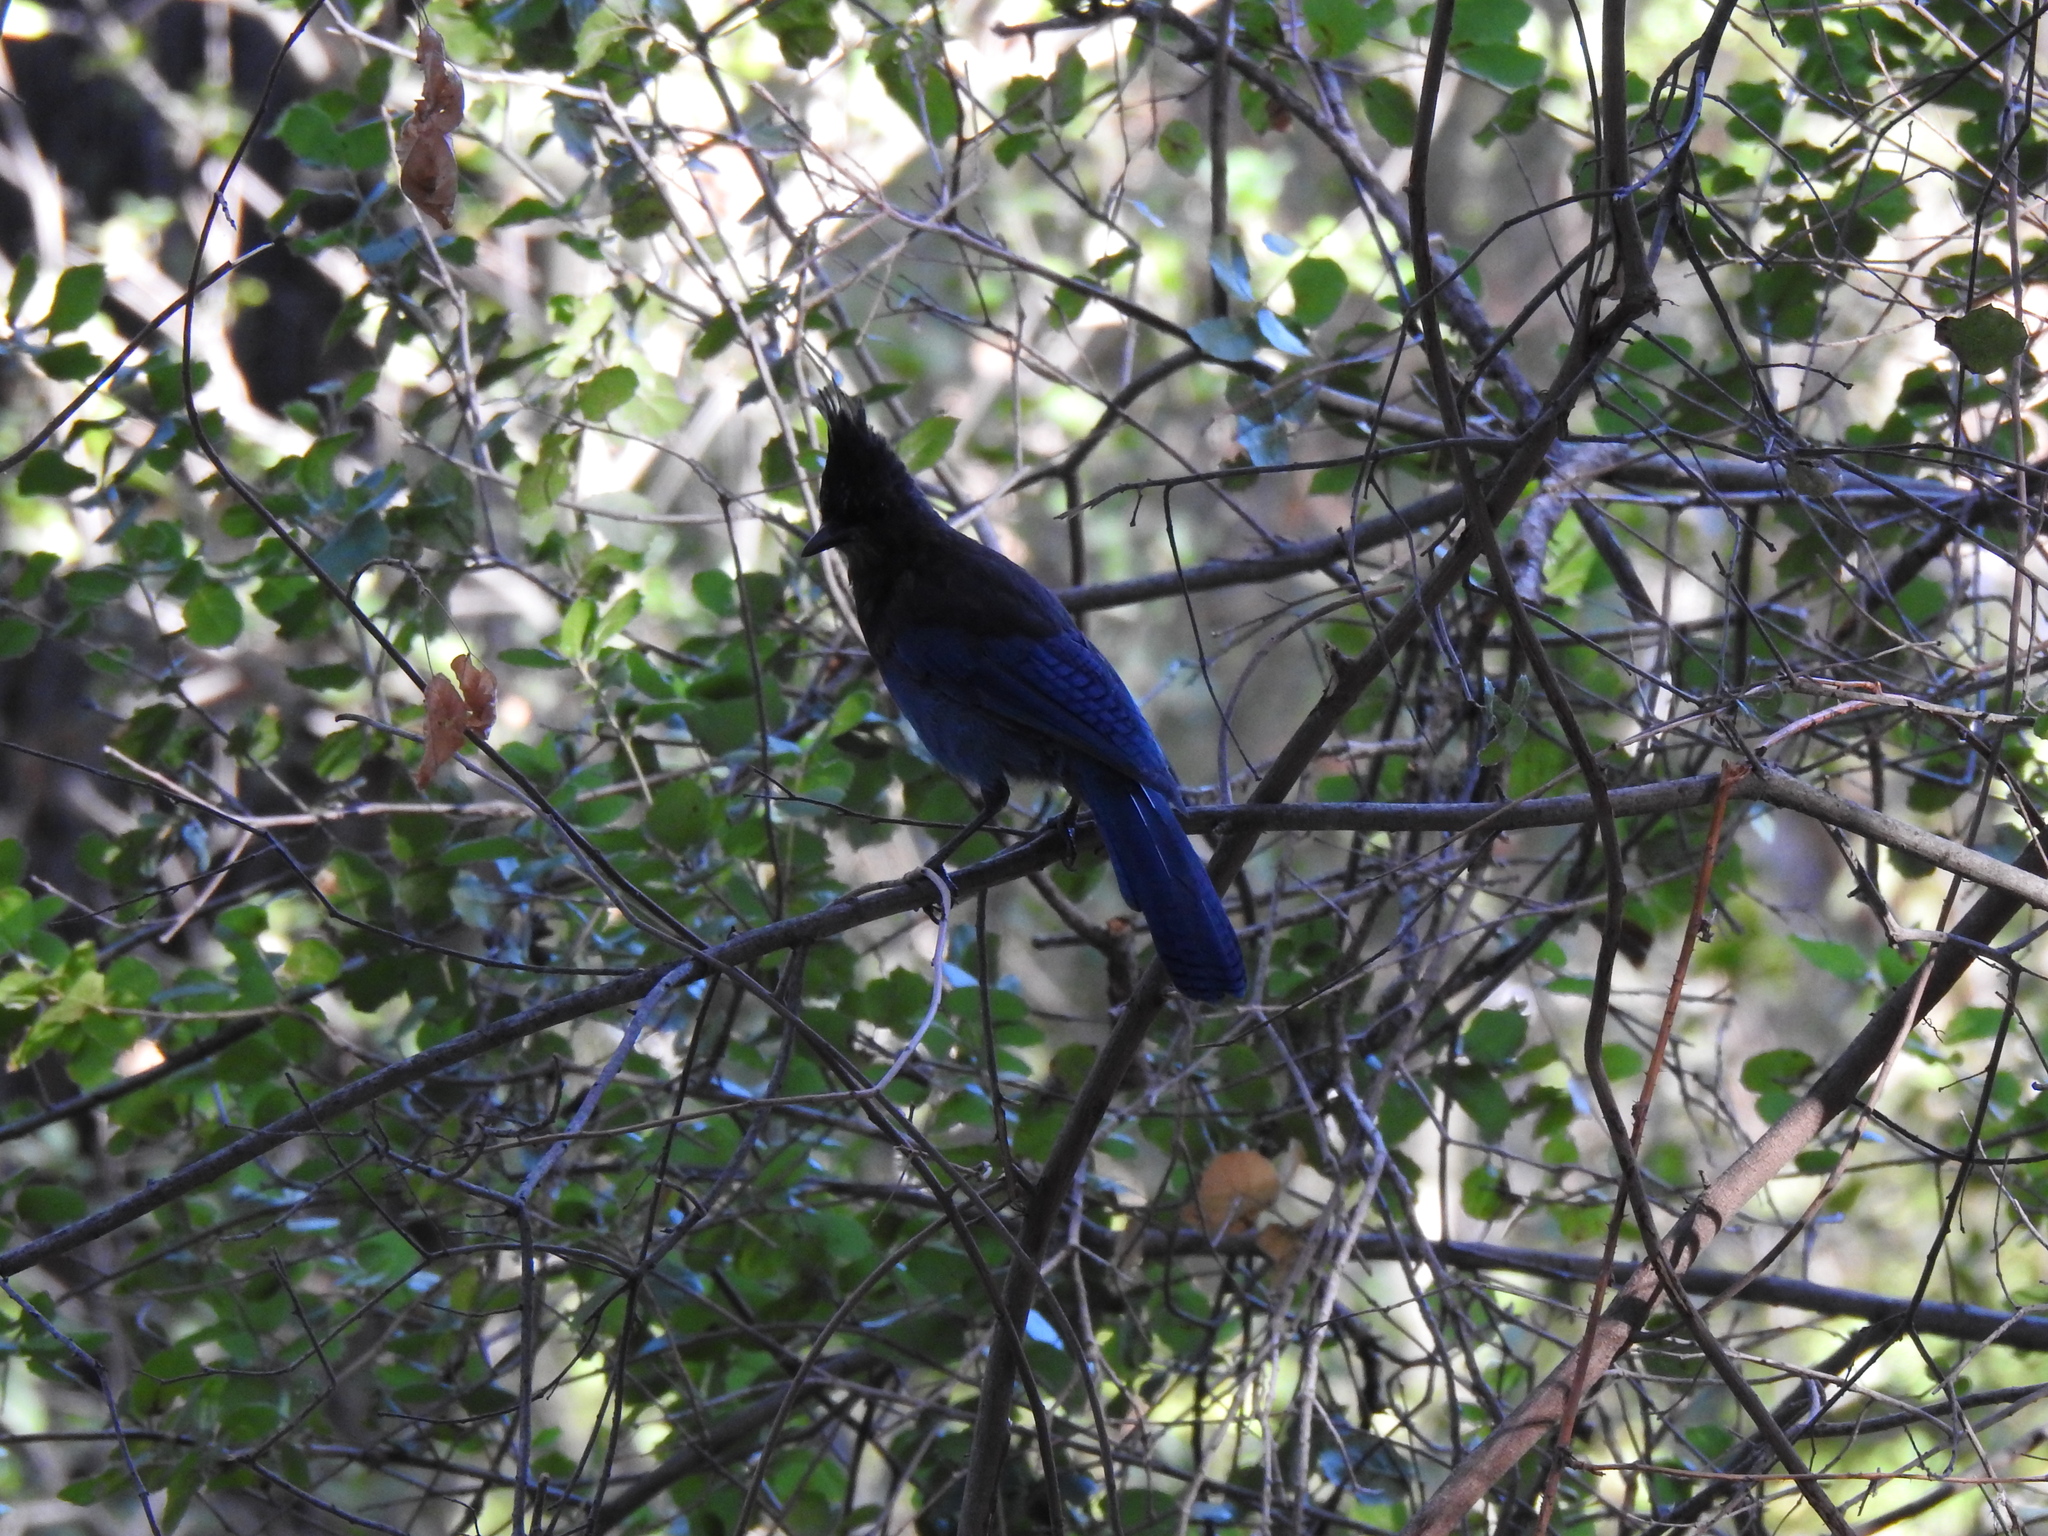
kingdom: Animalia
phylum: Chordata
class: Aves
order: Passeriformes
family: Corvidae
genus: Cyanocitta
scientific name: Cyanocitta stelleri
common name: Steller's jay
